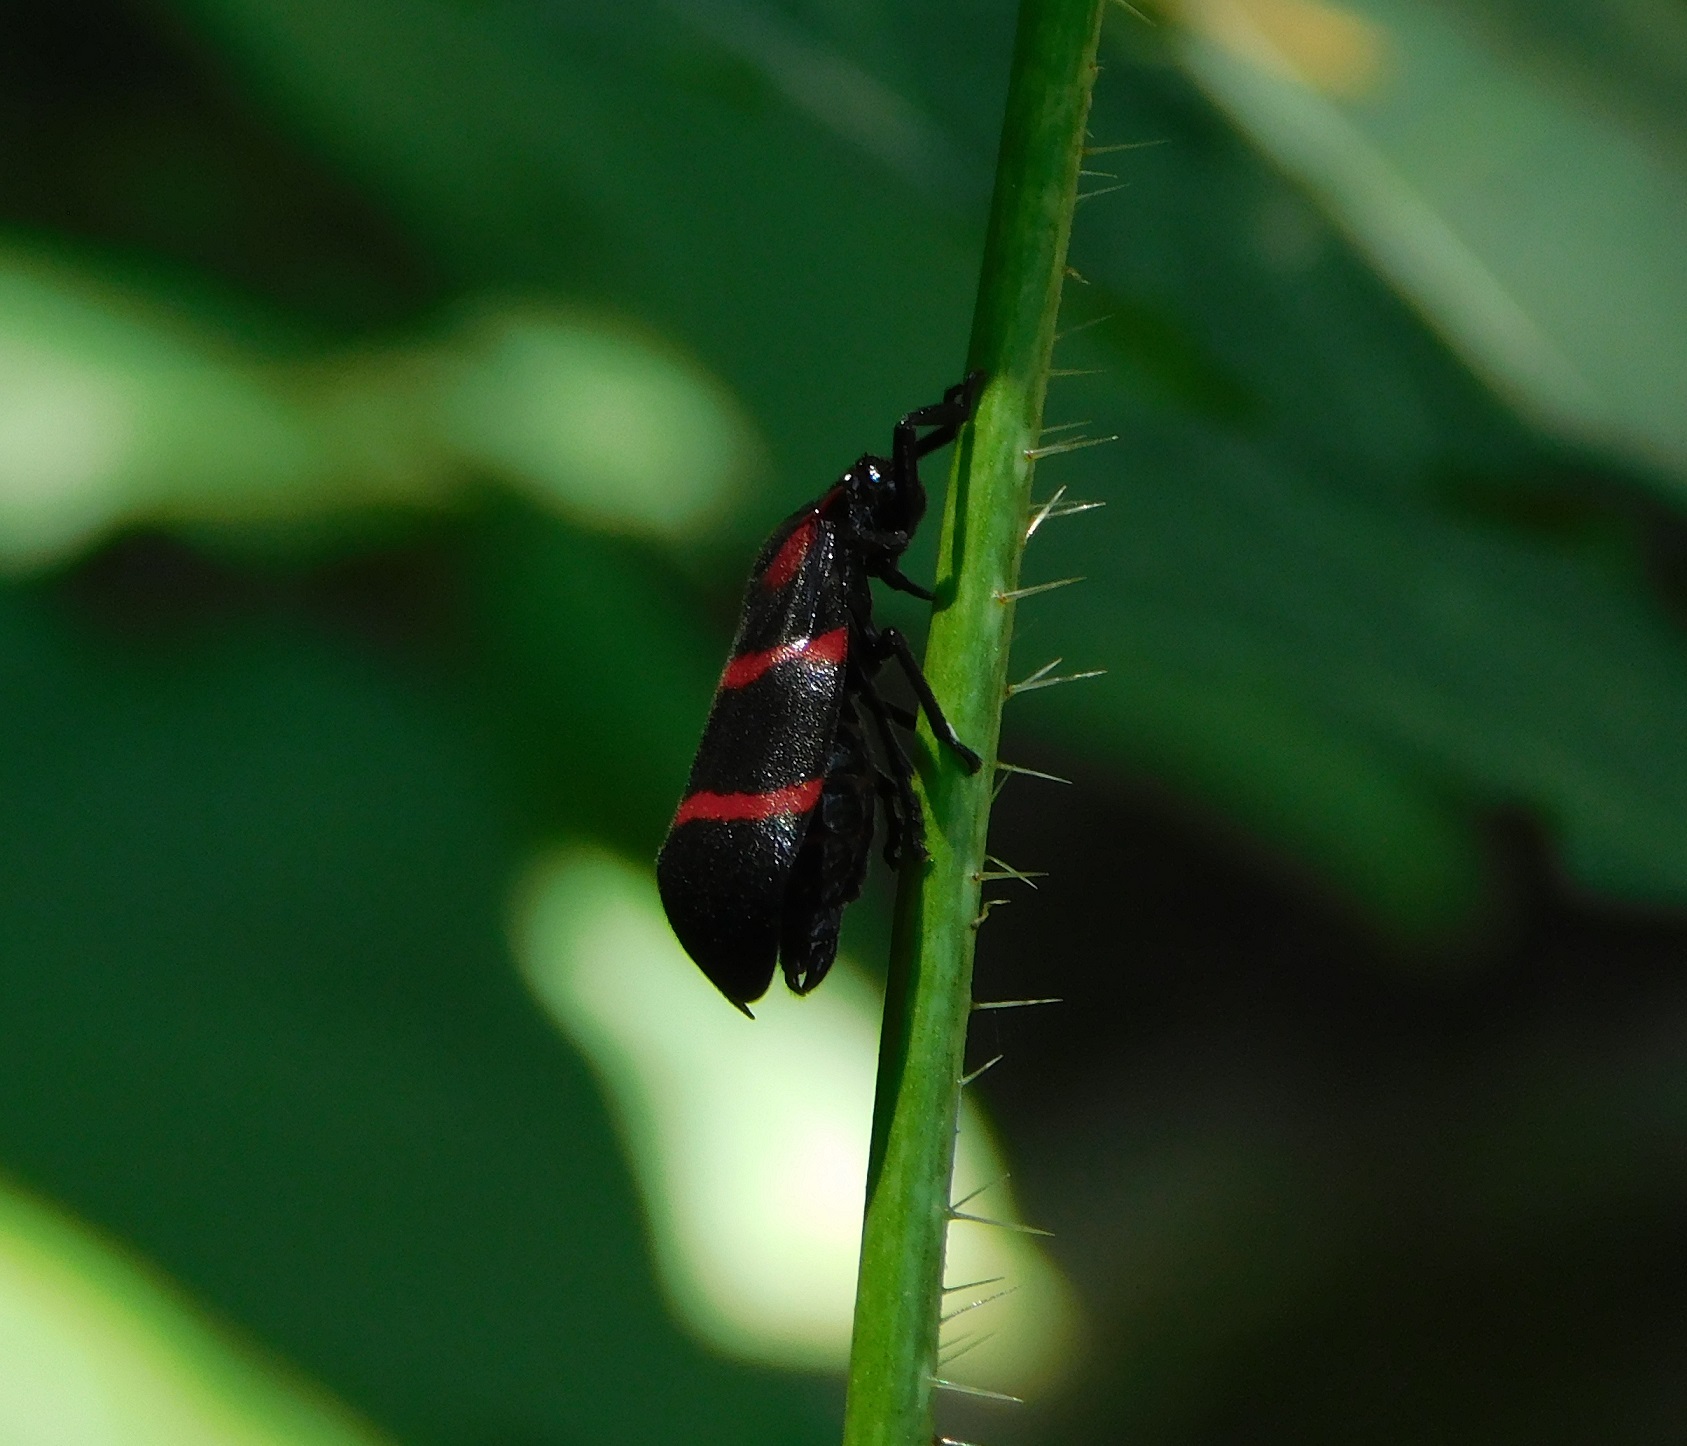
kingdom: Animalia
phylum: Arthropoda
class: Insecta
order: Hemiptera
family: Cercopidae
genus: Huaina
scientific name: Huaina inca
